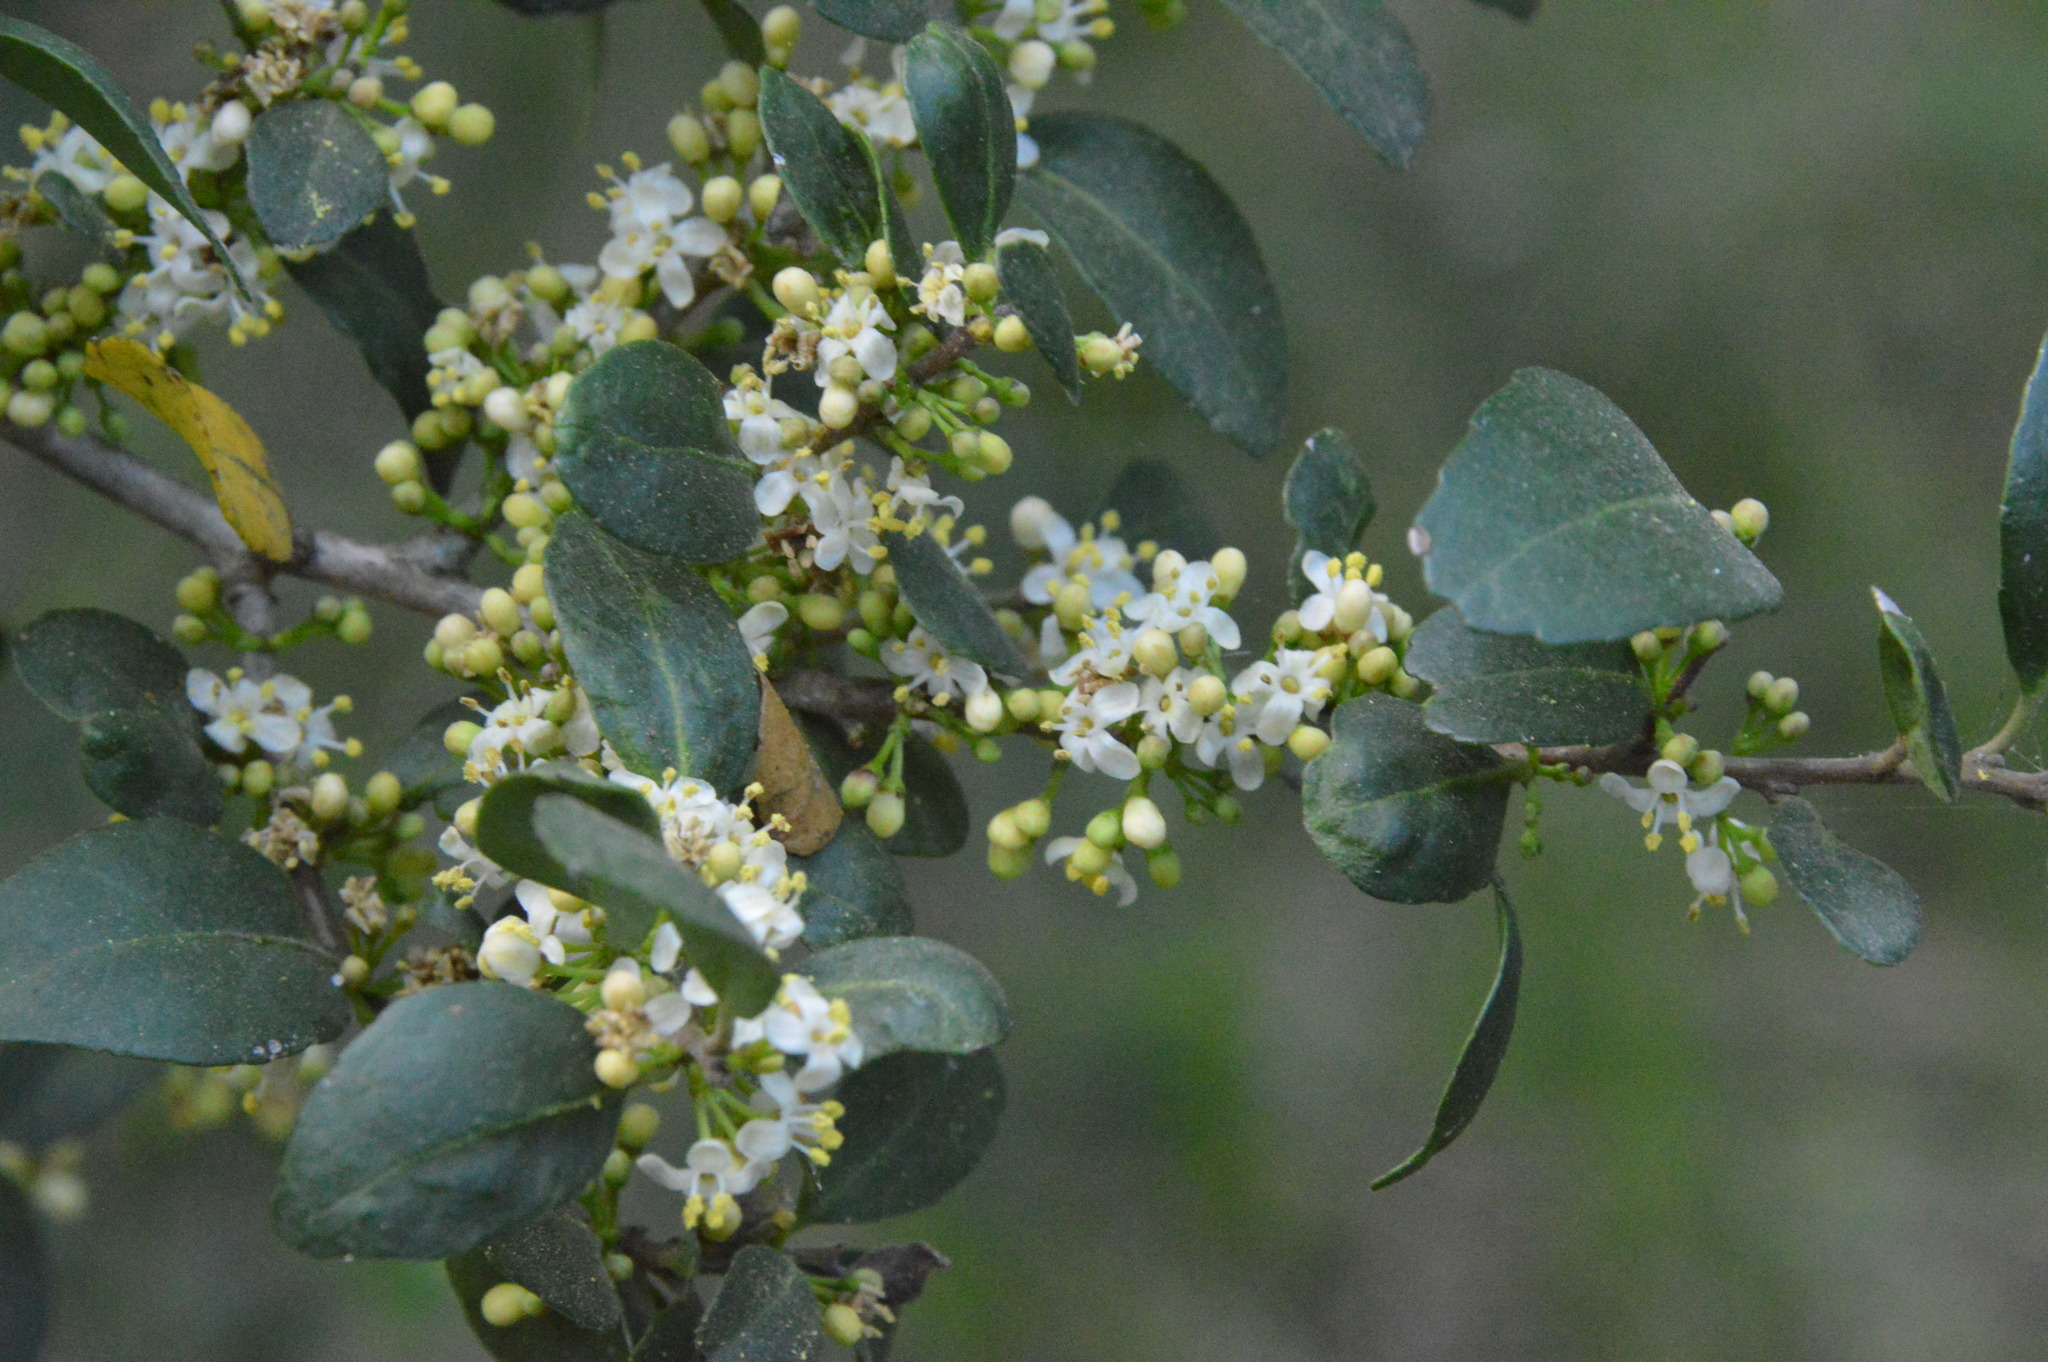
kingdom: Plantae
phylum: Tracheophyta
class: Magnoliopsida
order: Aquifoliales
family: Aquifoliaceae
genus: Ilex
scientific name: Ilex vomitoria
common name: Yaupon holly
